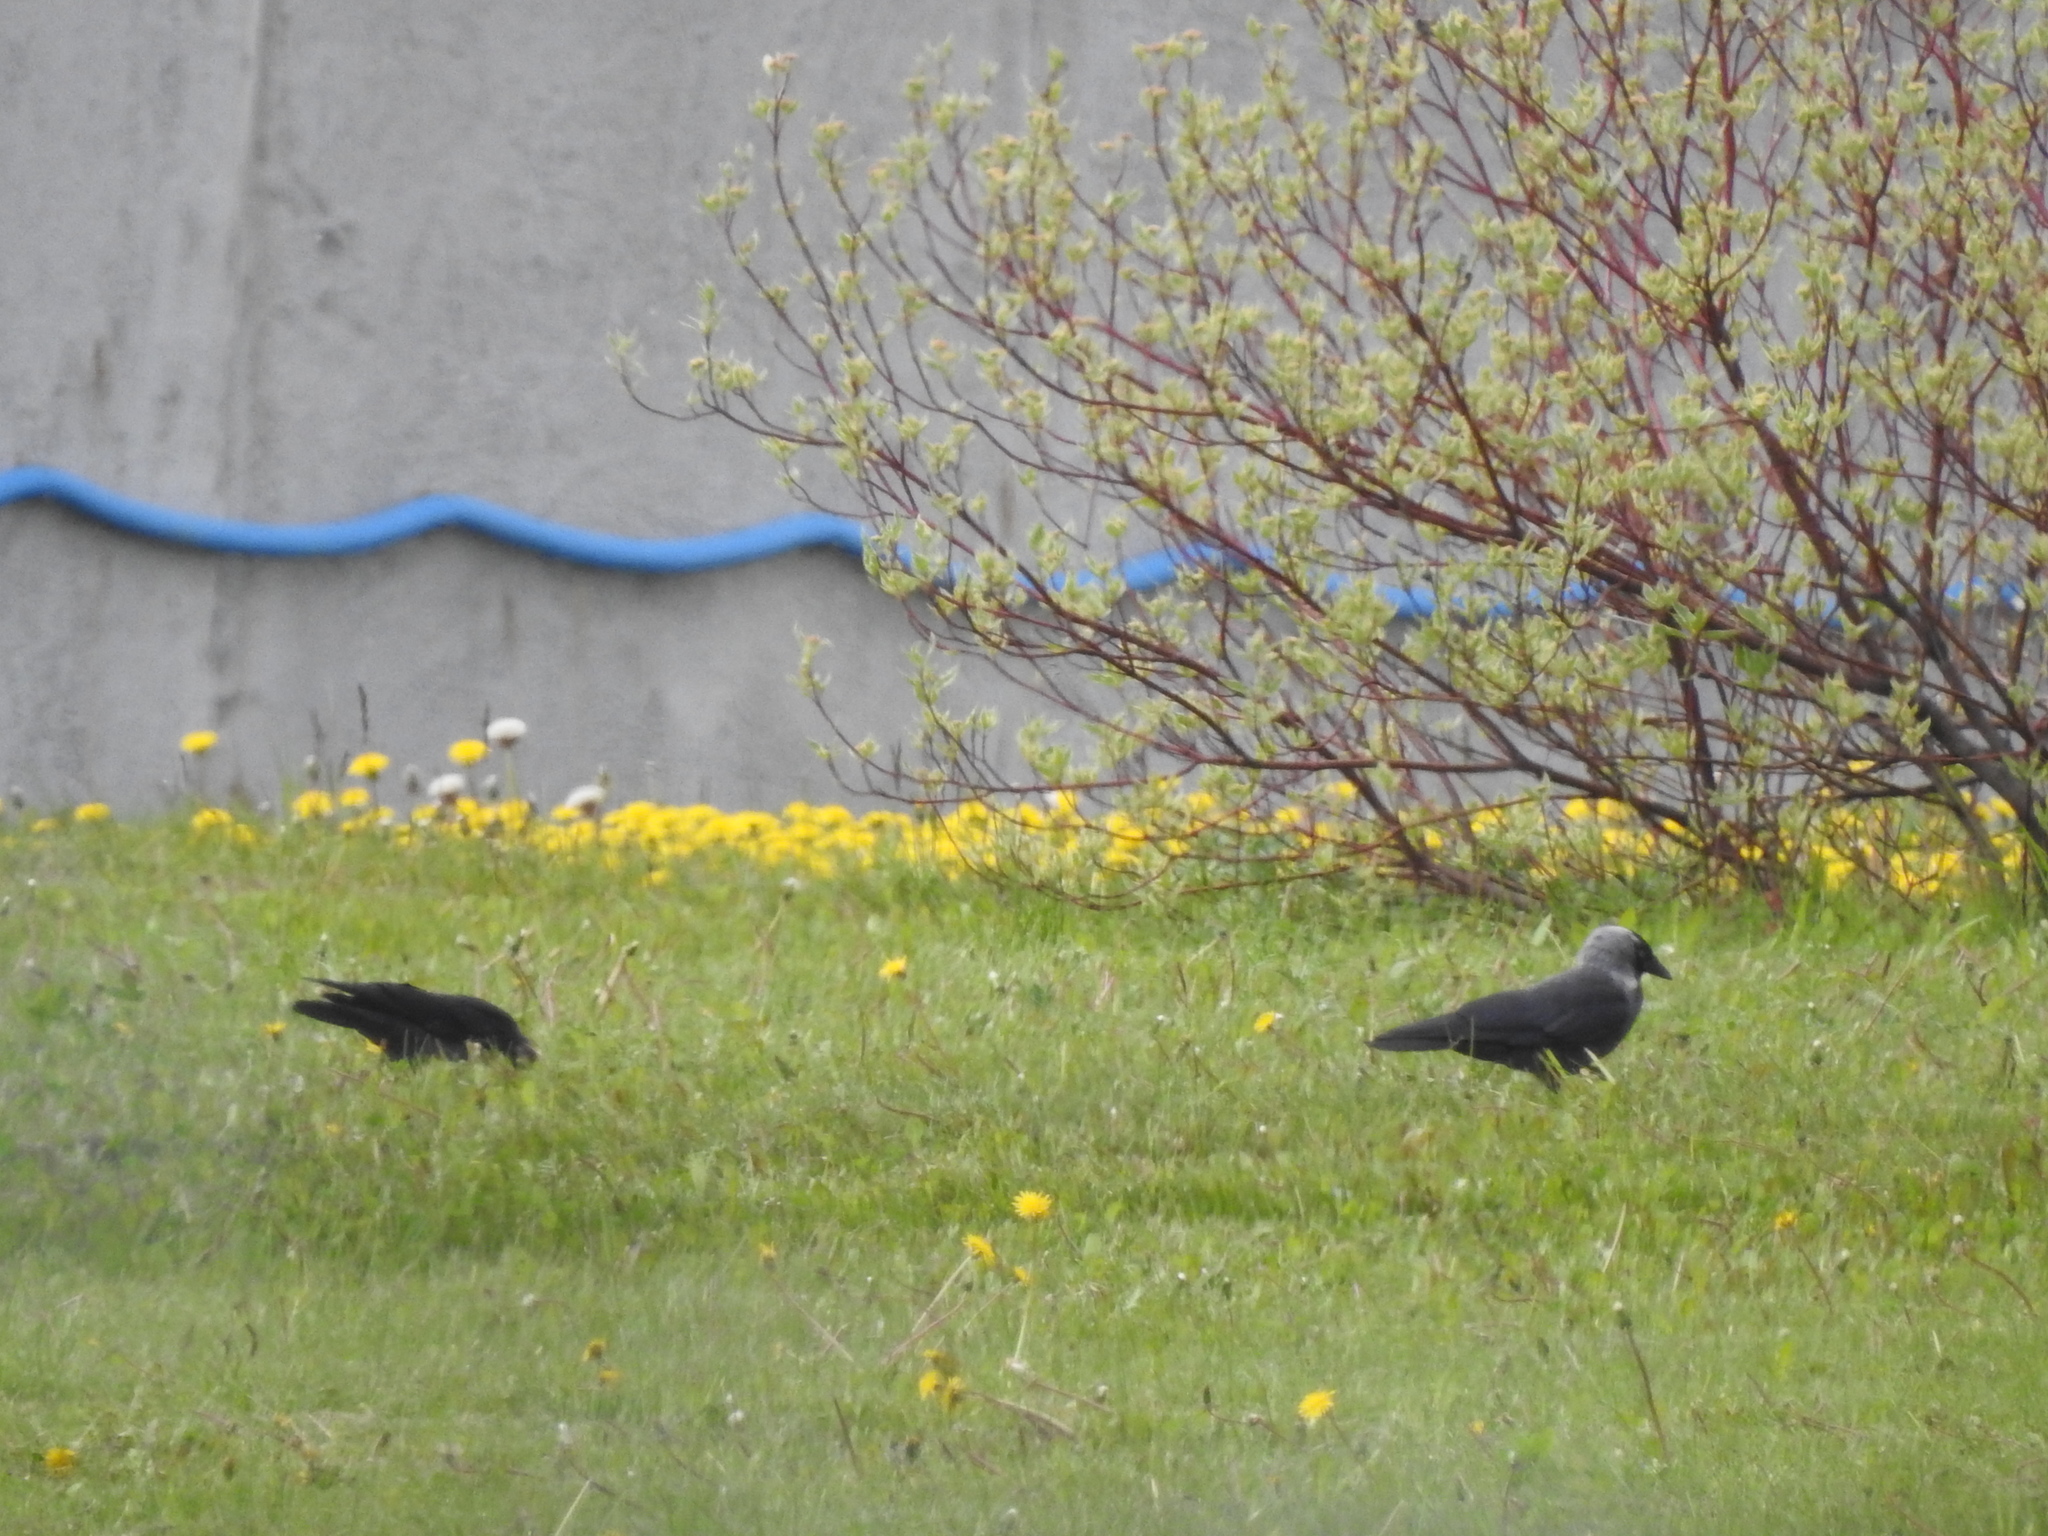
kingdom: Animalia
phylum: Chordata
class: Aves
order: Passeriformes
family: Corvidae
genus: Coloeus
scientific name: Coloeus monedula
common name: Western jackdaw
